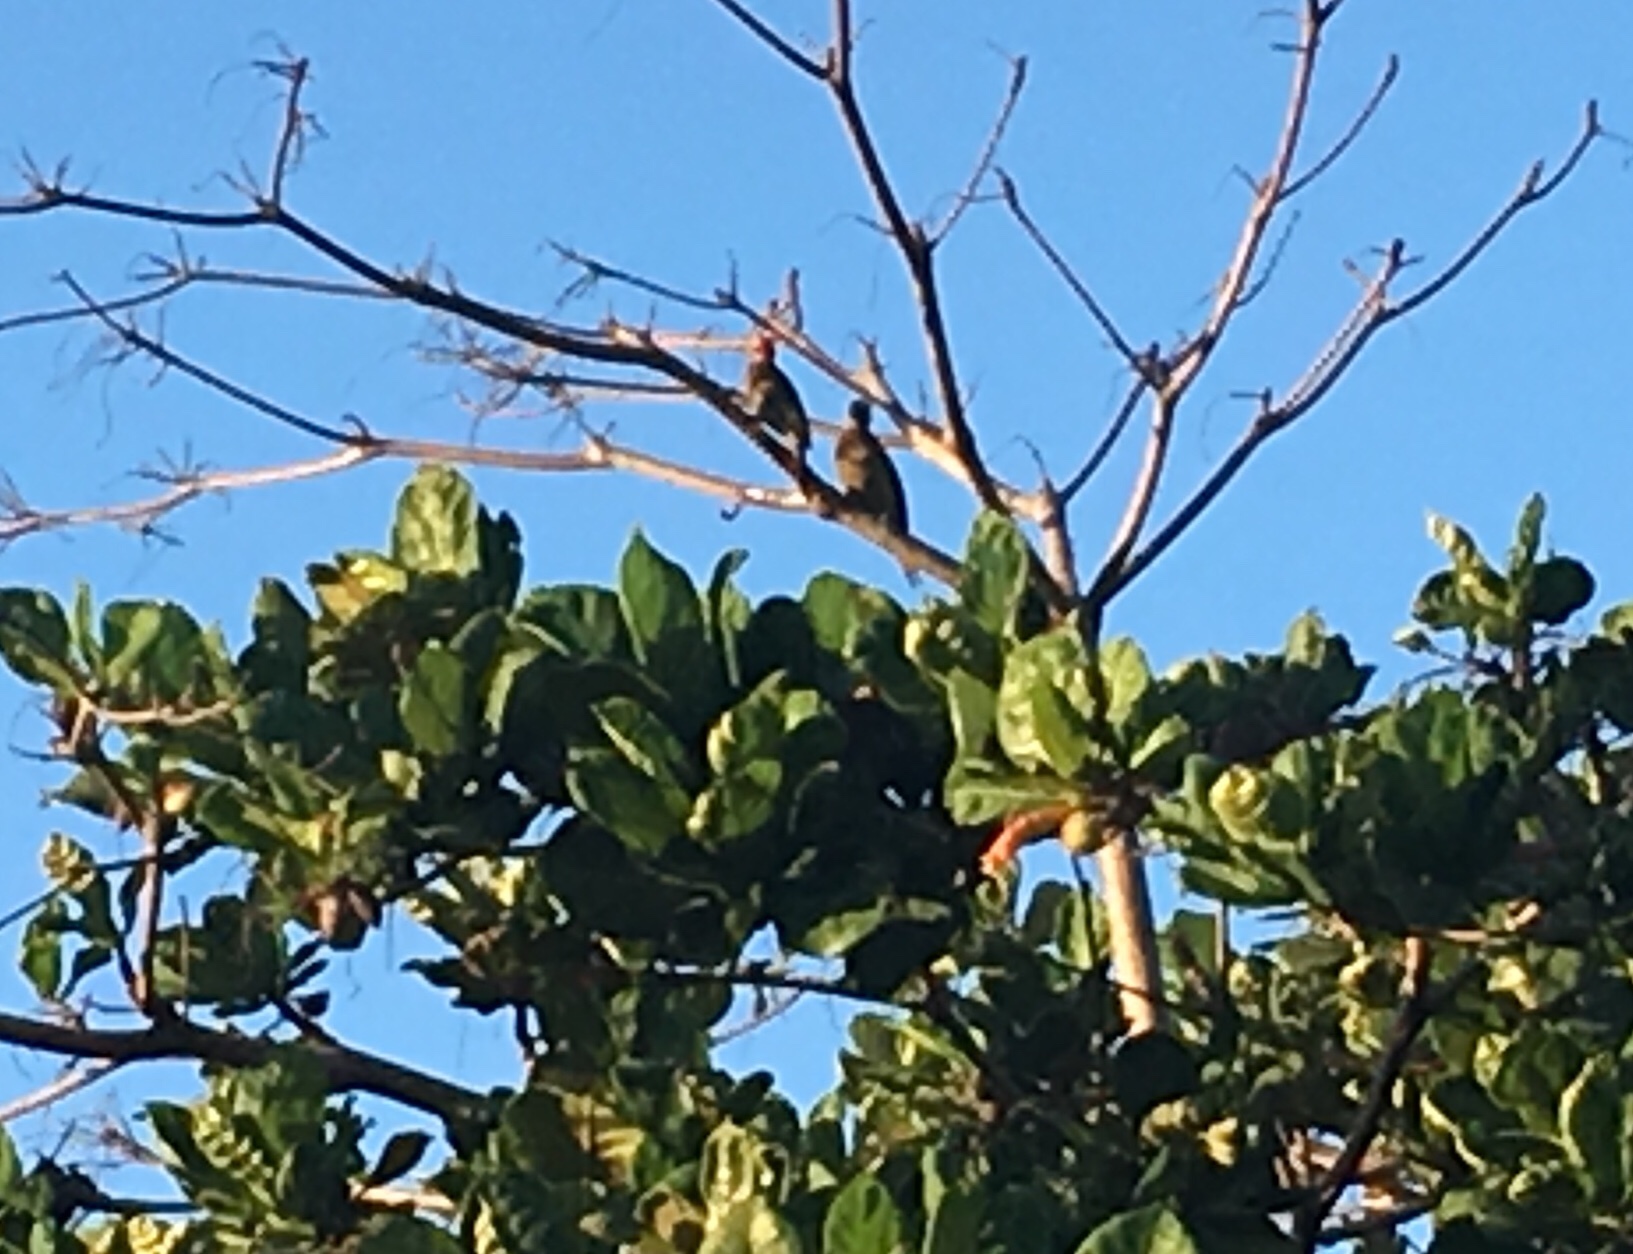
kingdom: Animalia
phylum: Chordata
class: Aves
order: Piciformes
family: Picidae
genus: Melanerpes
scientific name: Melanerpes striatus
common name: Hispaniolan woodpecker
